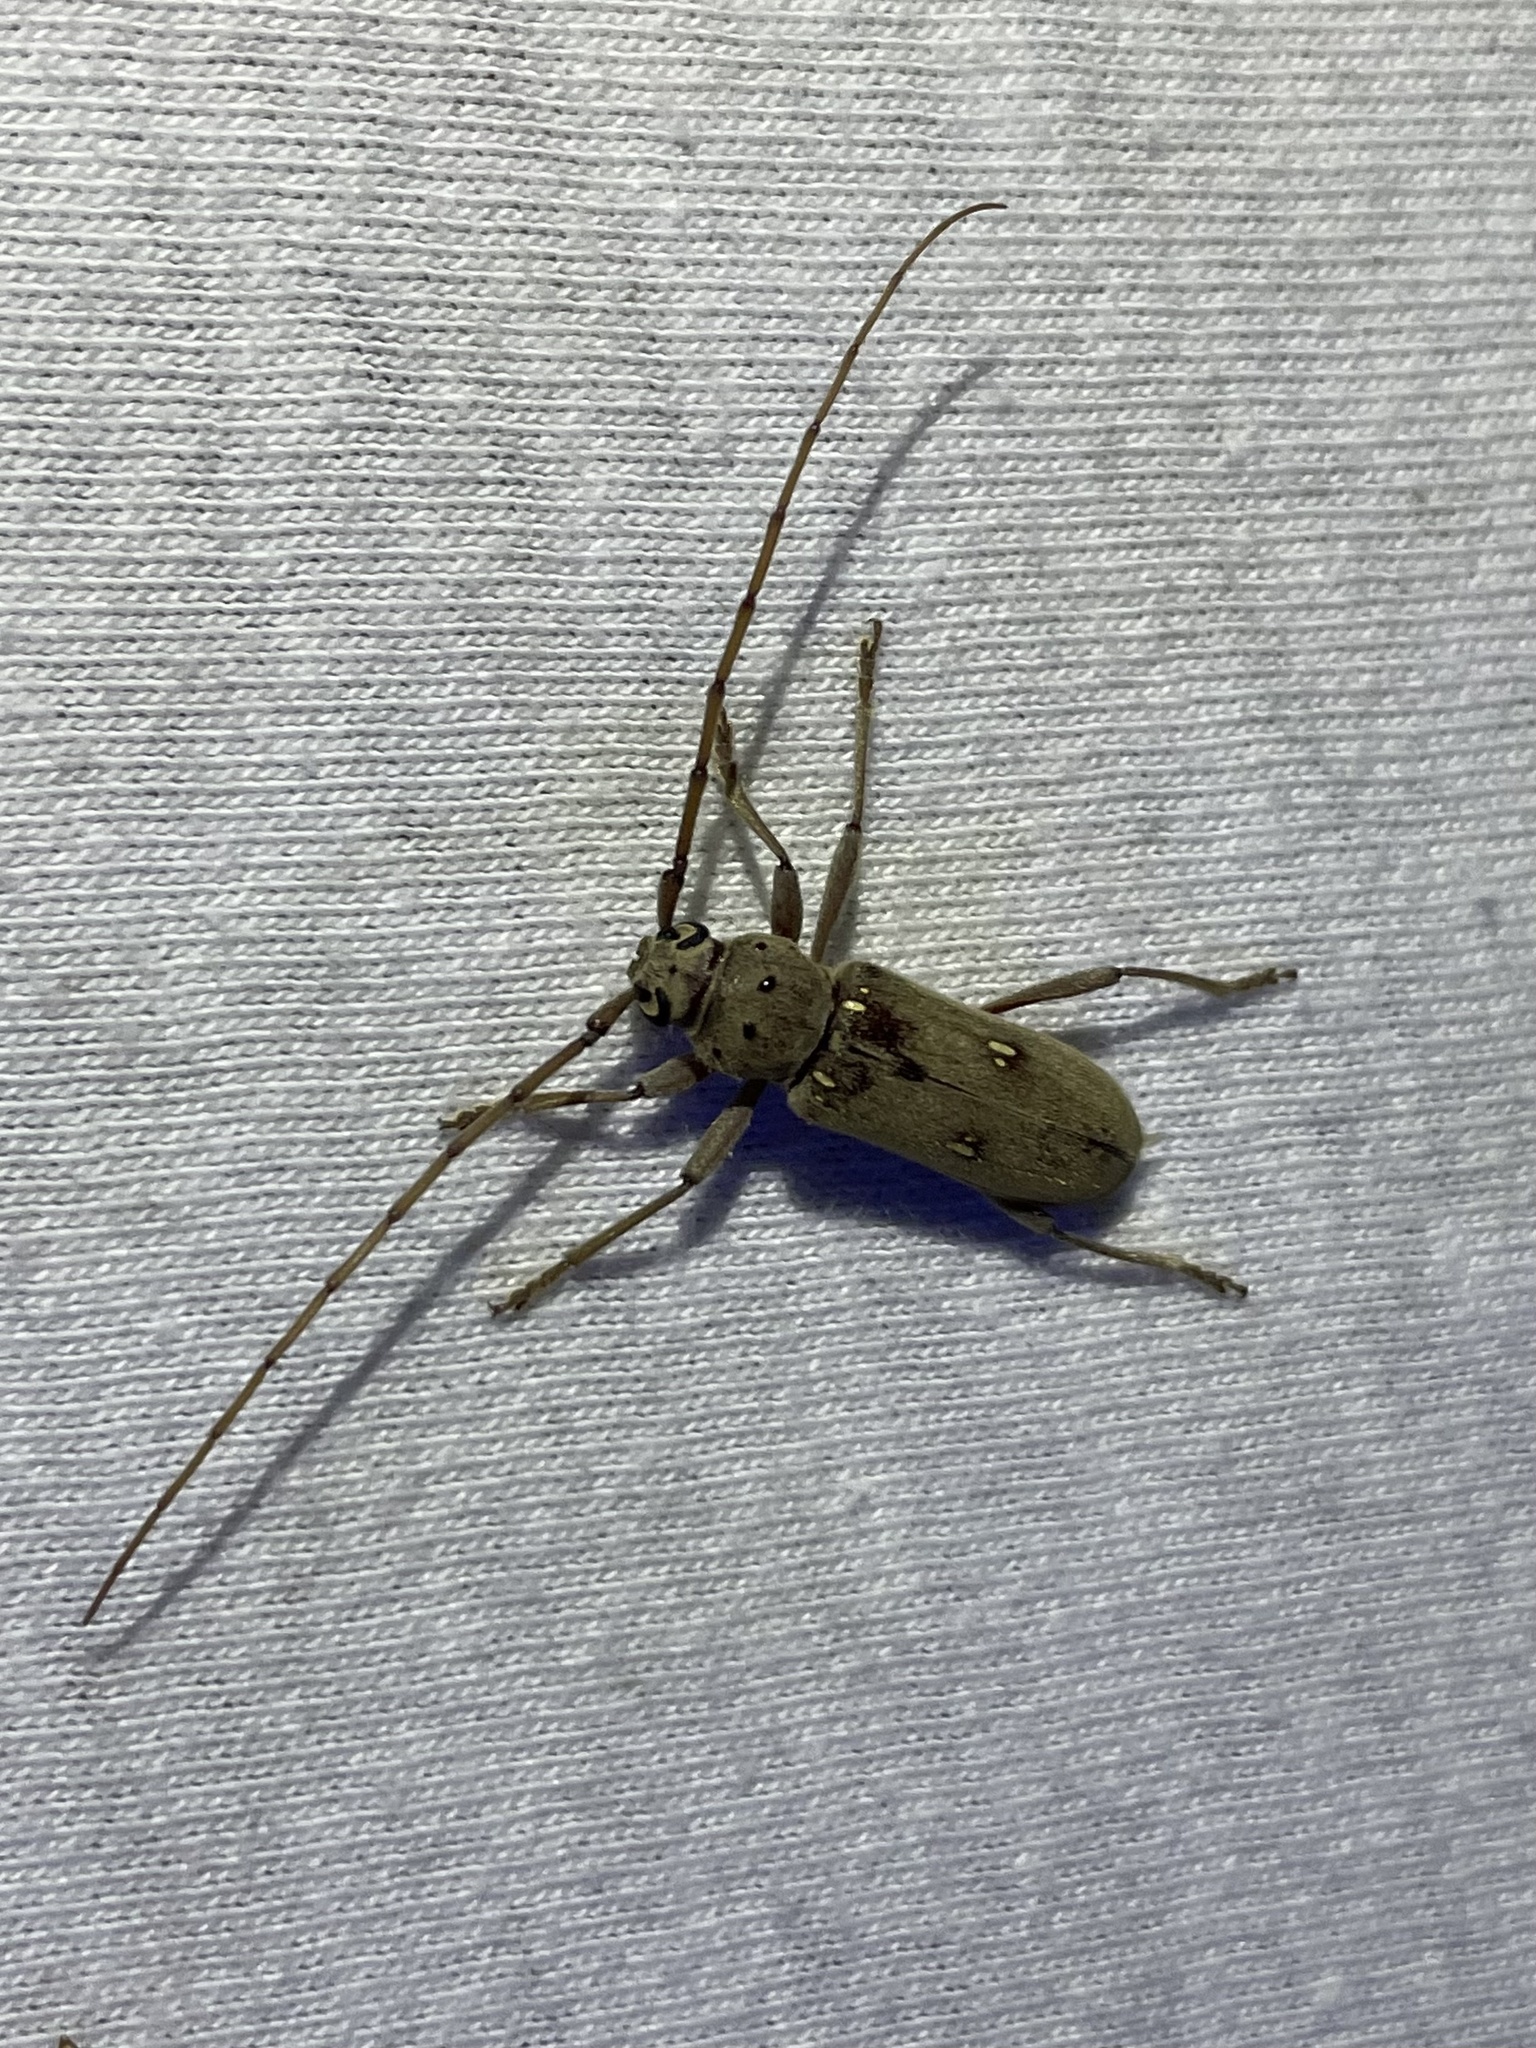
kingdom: Animalia
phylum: Arthropoda
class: Insecta
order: Coleoptera
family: Cerambycidae
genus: Eburia
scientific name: Eburia mutica
